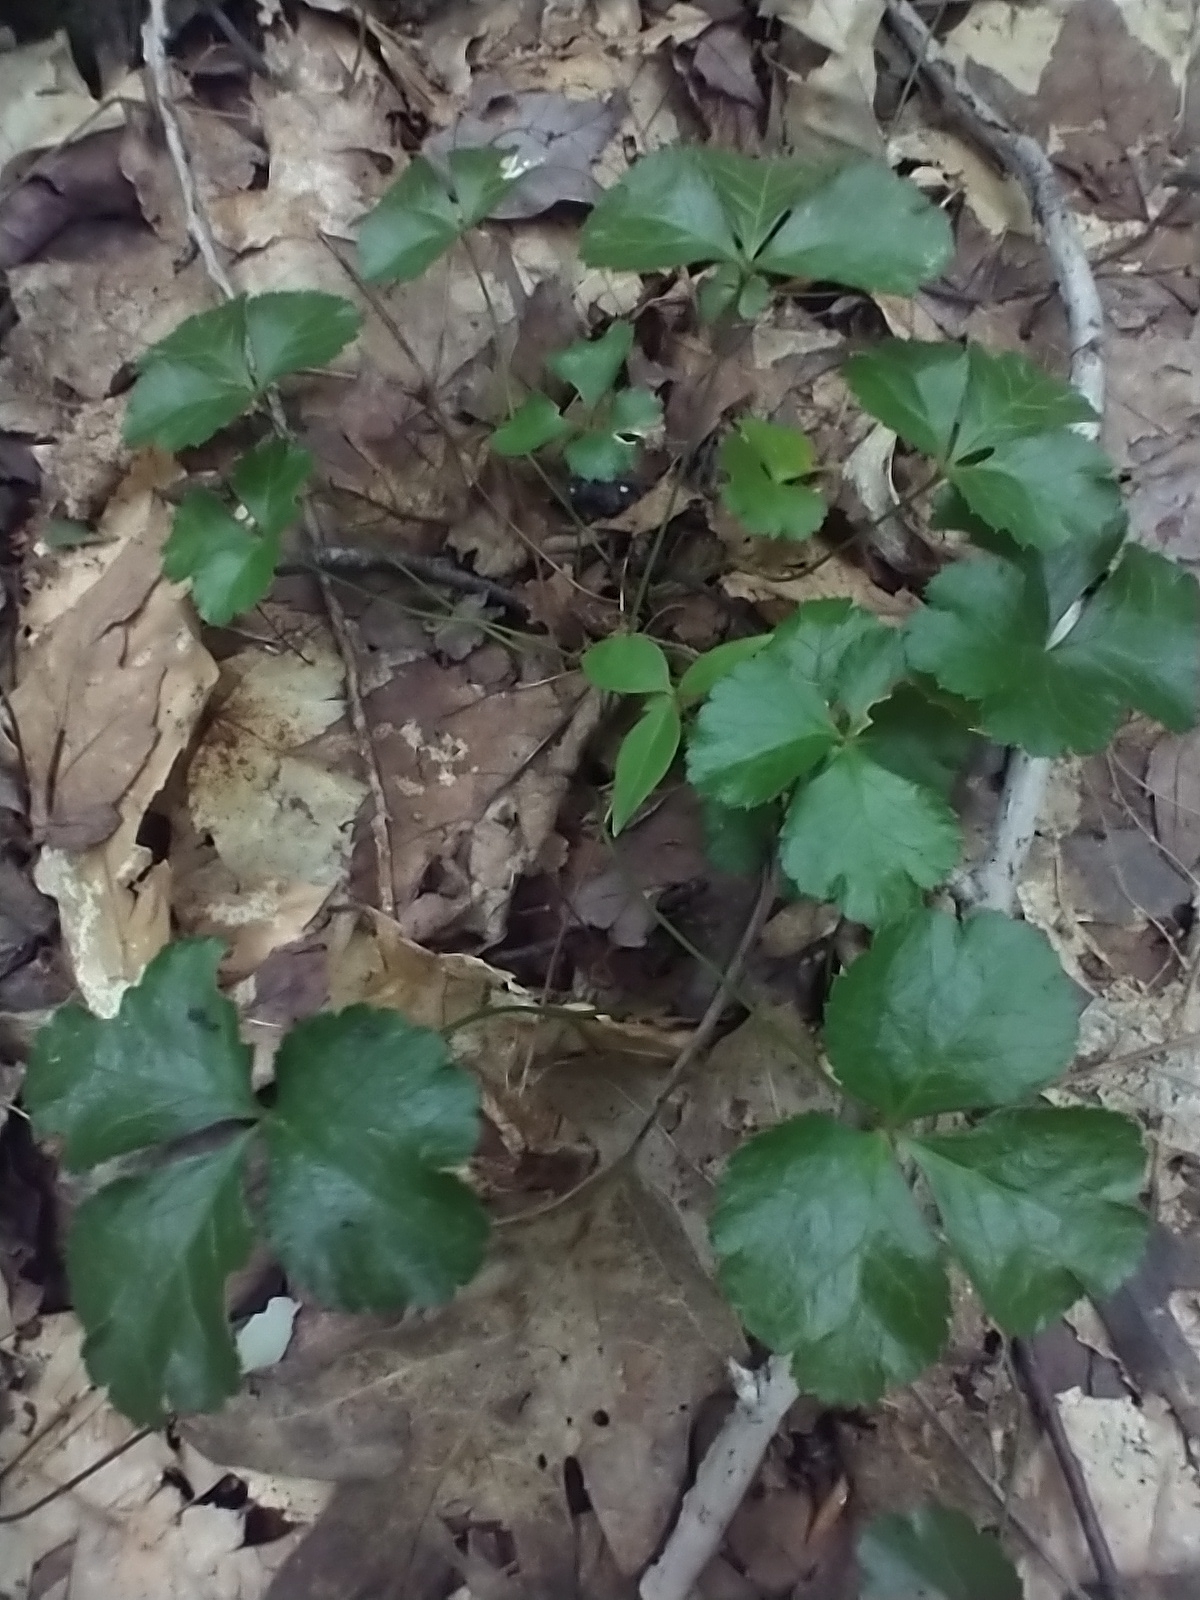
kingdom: Plantae
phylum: Tracheophyta
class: Magnoliopsida
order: Ranunculales
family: Ranunculaceae
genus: Coptis
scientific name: Coptis trifolia
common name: Canker-root
